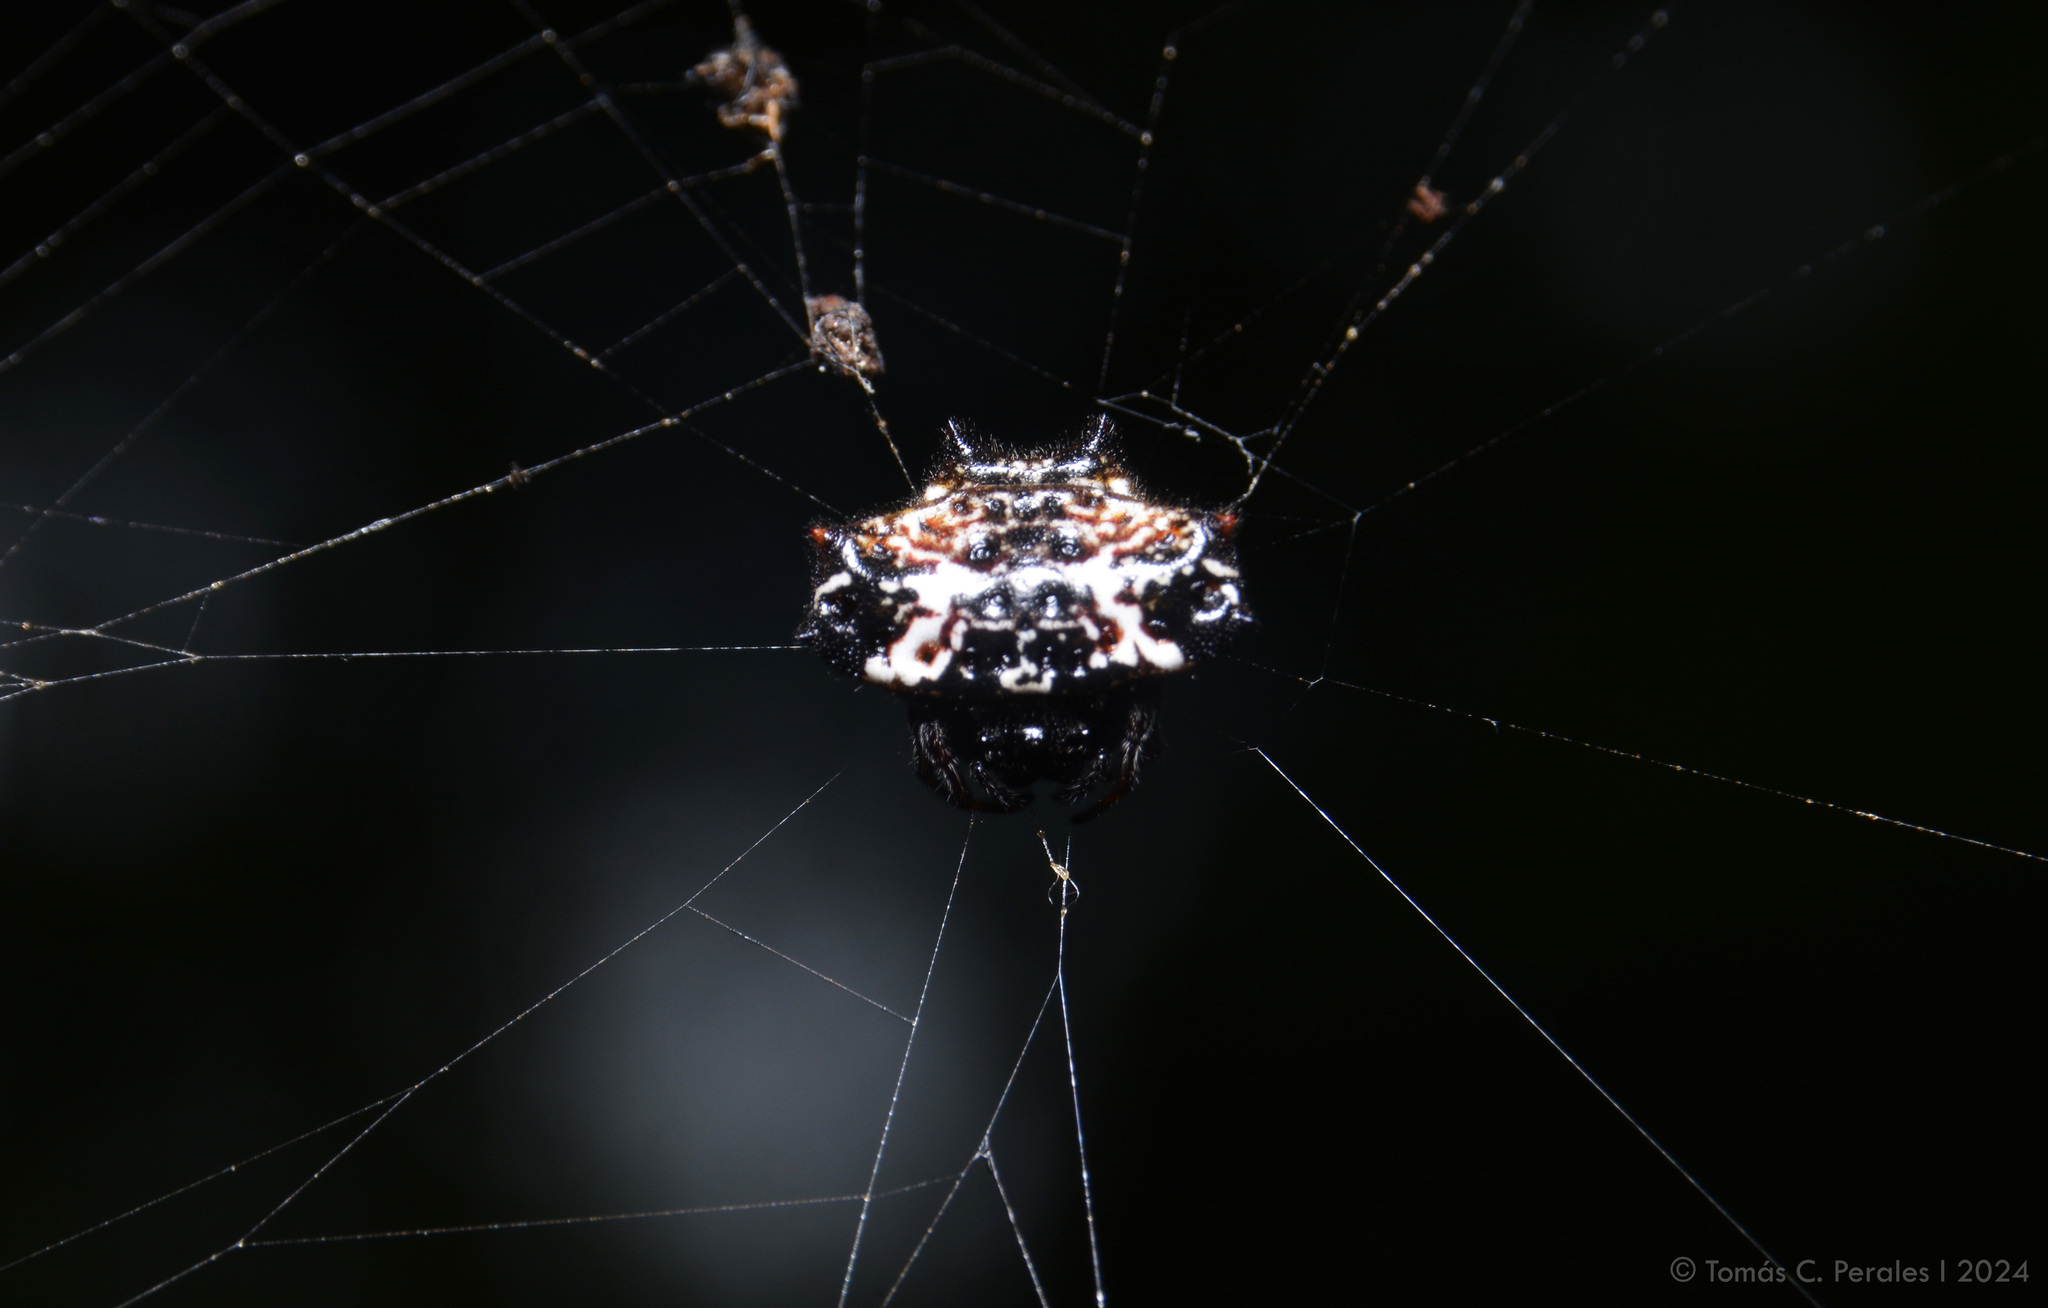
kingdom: Animalia
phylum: Arthropoda
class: Arachnida
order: Araneae
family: Araneidae
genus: Gasteracantha
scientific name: Gasteracantha cancriformis
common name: Orb weavers
